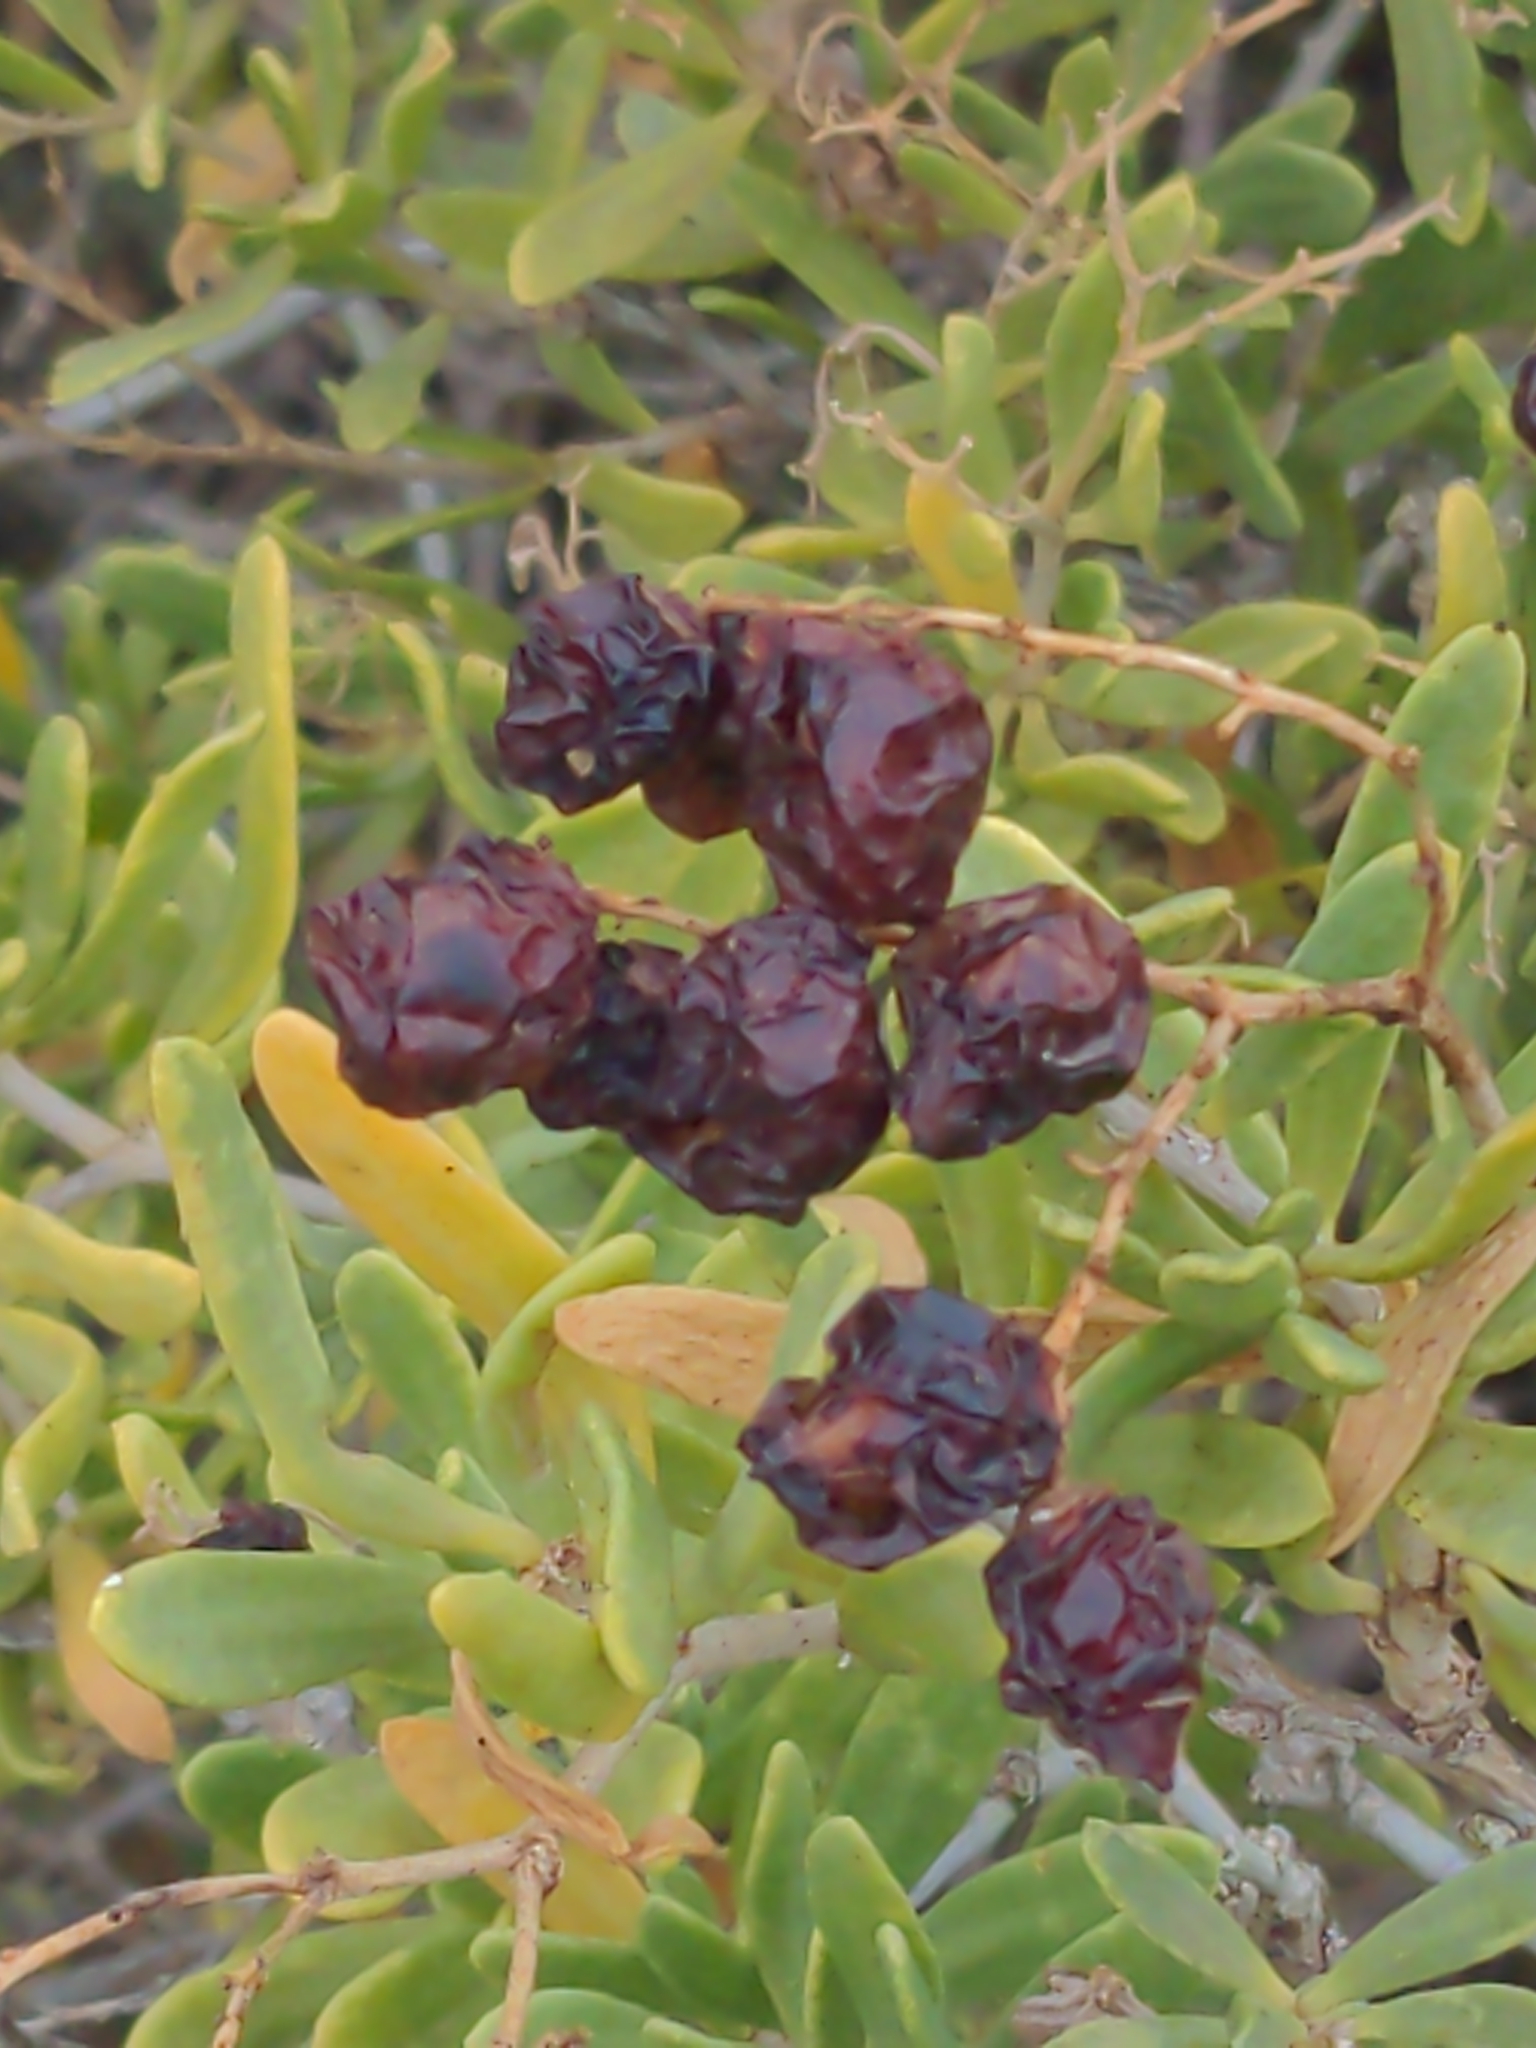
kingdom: Plantae
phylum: Tracheophyta
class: Magnoliopsida
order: Sapindales
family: Nitrariaceae
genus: Nitraria
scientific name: Nitraria billardierei
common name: Dillonbush
